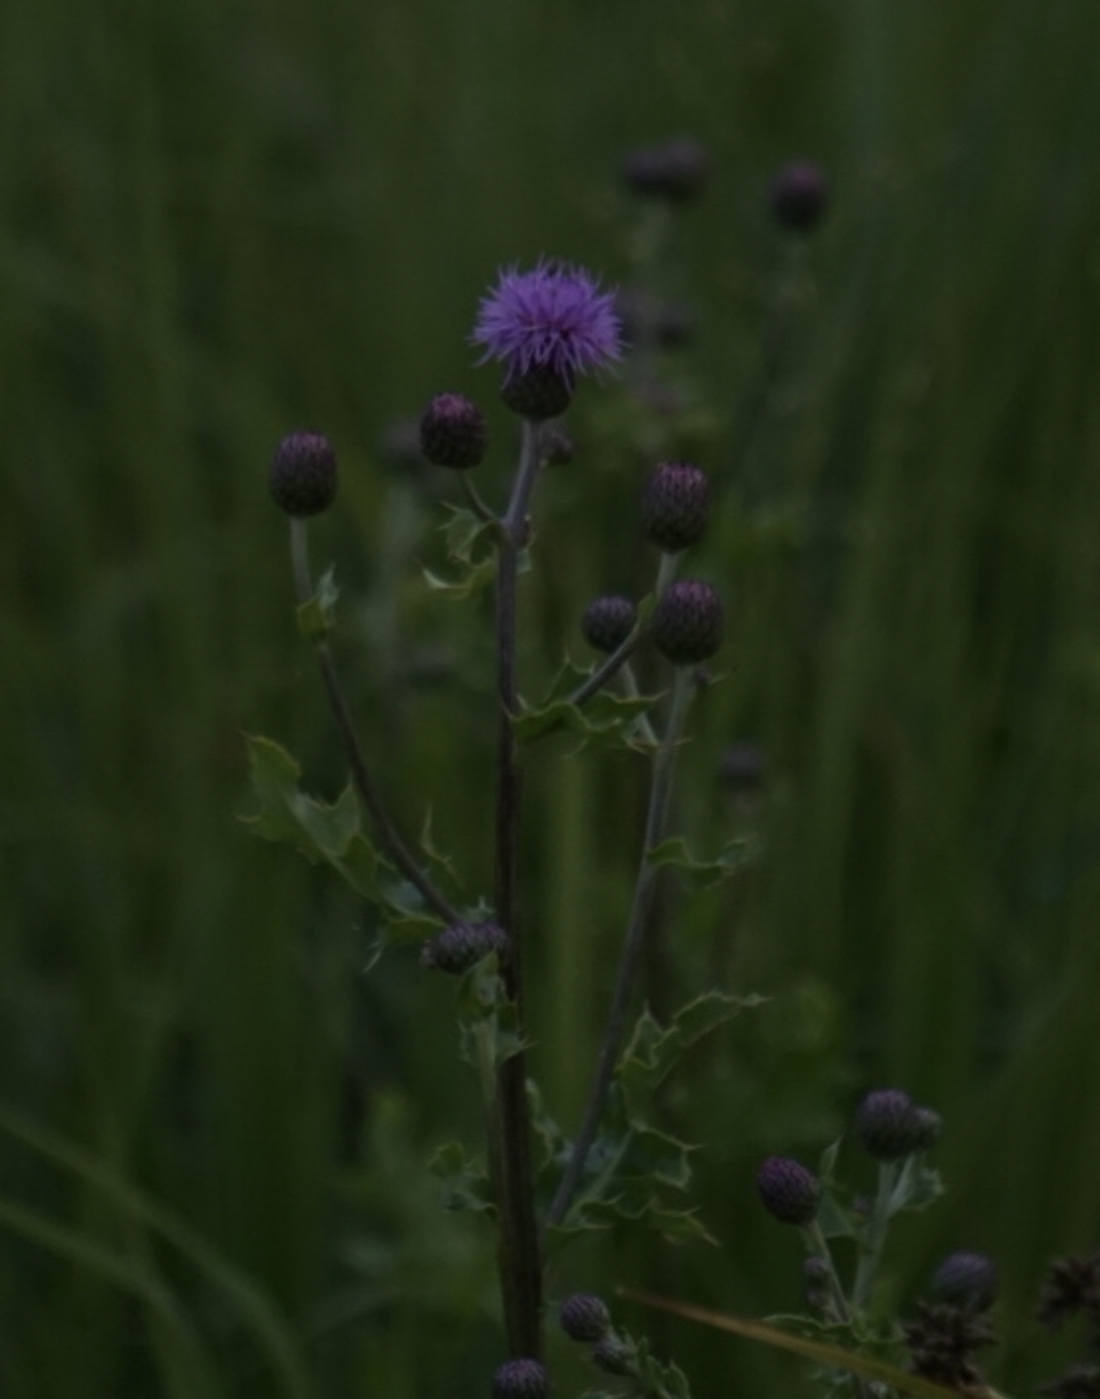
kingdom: Plantae
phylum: Tracheophyta
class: Magnoliopsida
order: Asterales
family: Asteraceae
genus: Cirsium
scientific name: Cirsium arvense
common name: Creeping thistle
